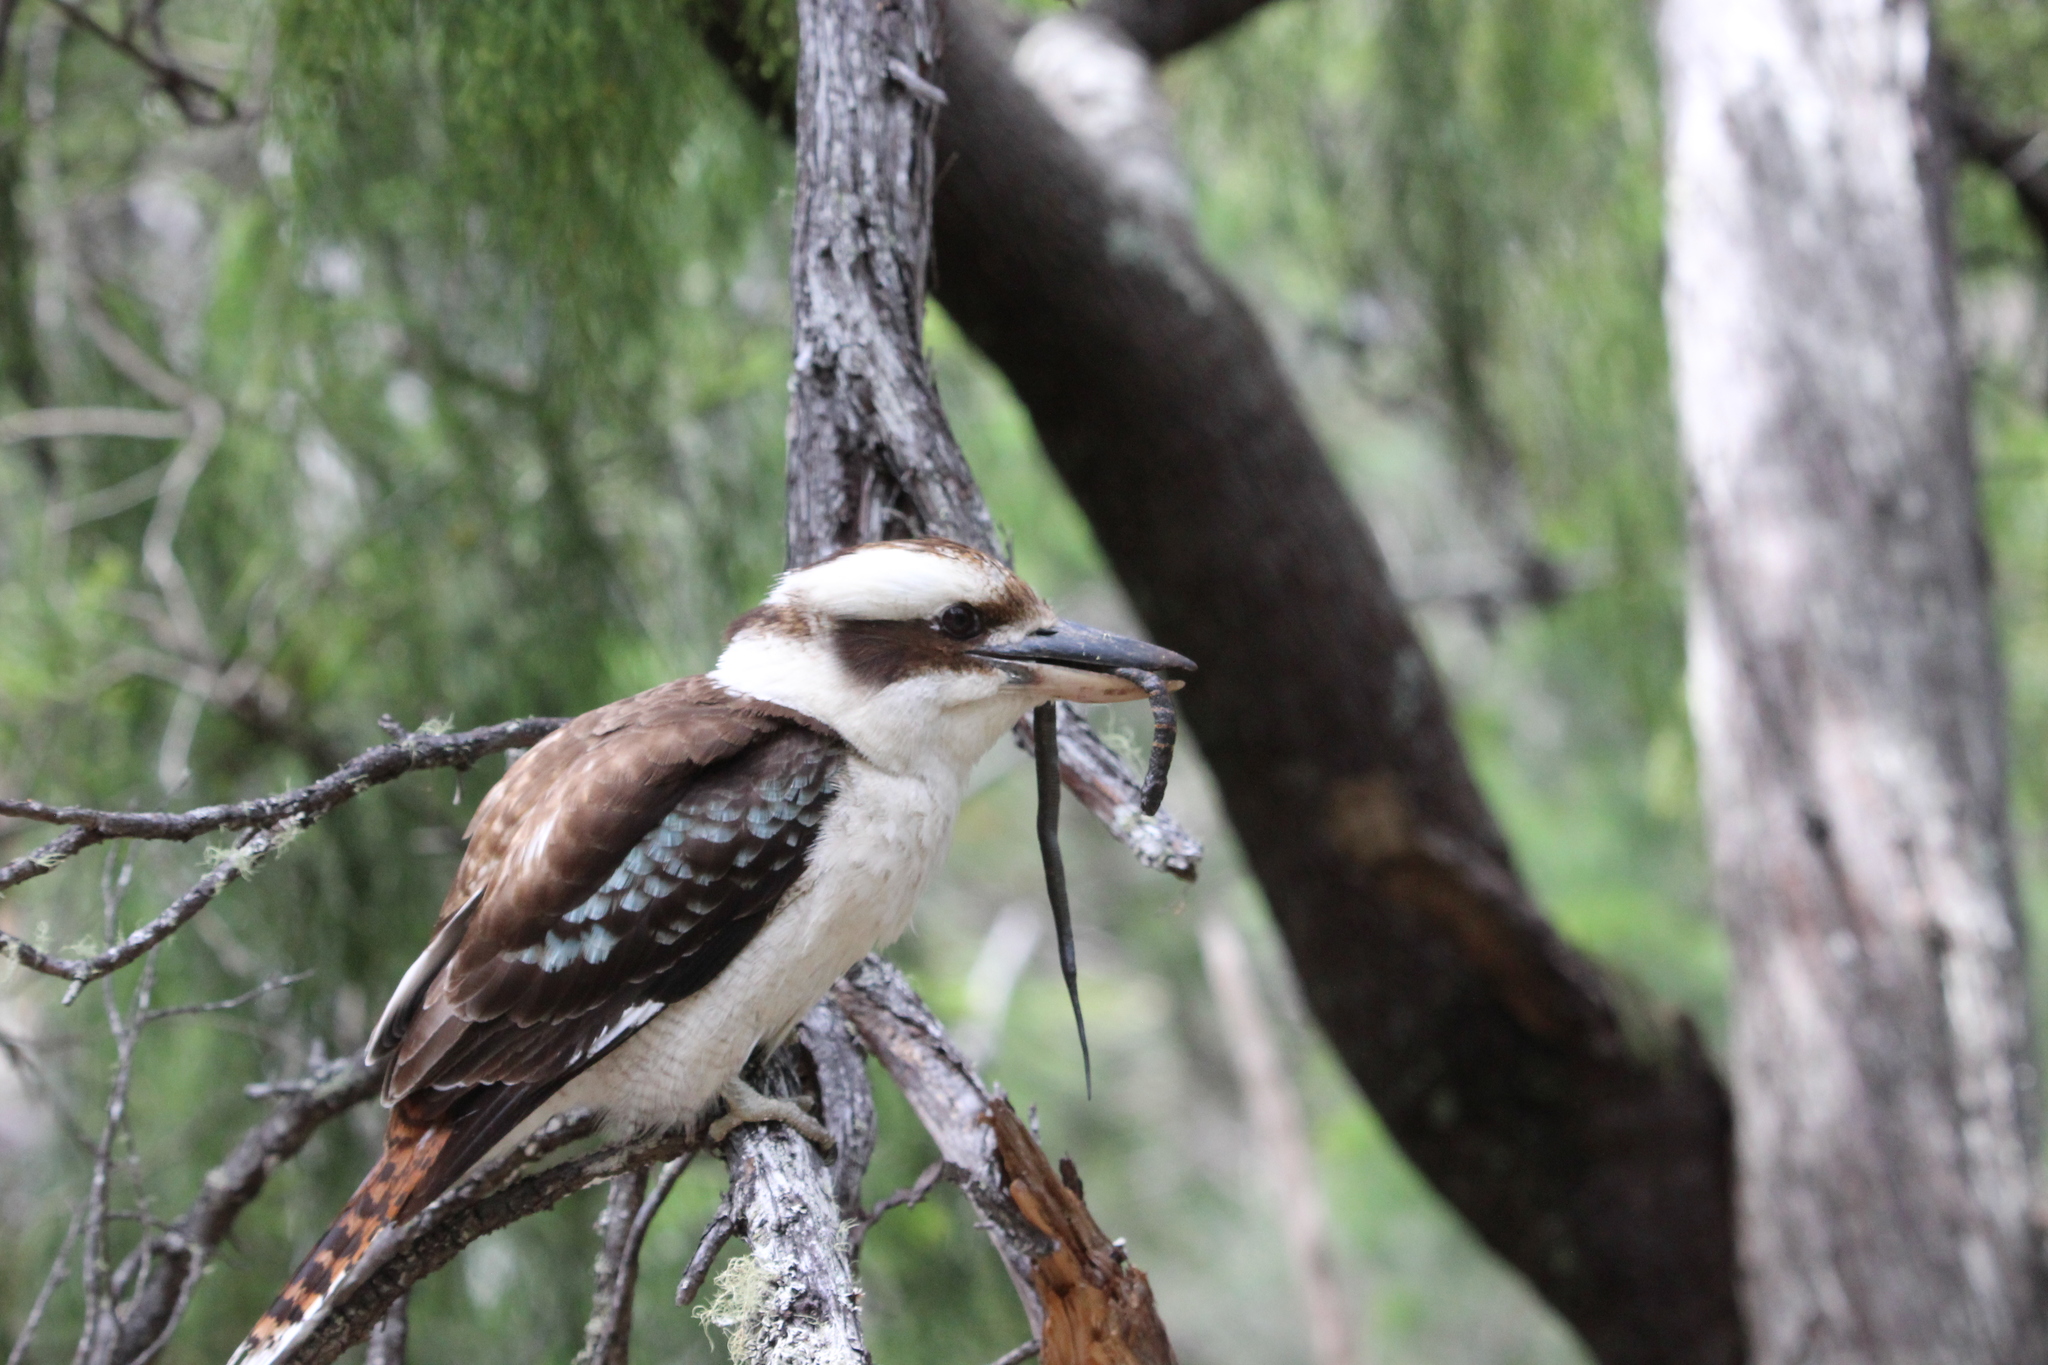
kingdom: Animalia
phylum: Chordata
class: Aves
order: Coraciiformes
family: Alcedinidae
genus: Dacelo
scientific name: Dacelo novaeguineae
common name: Laughing kookaburra
